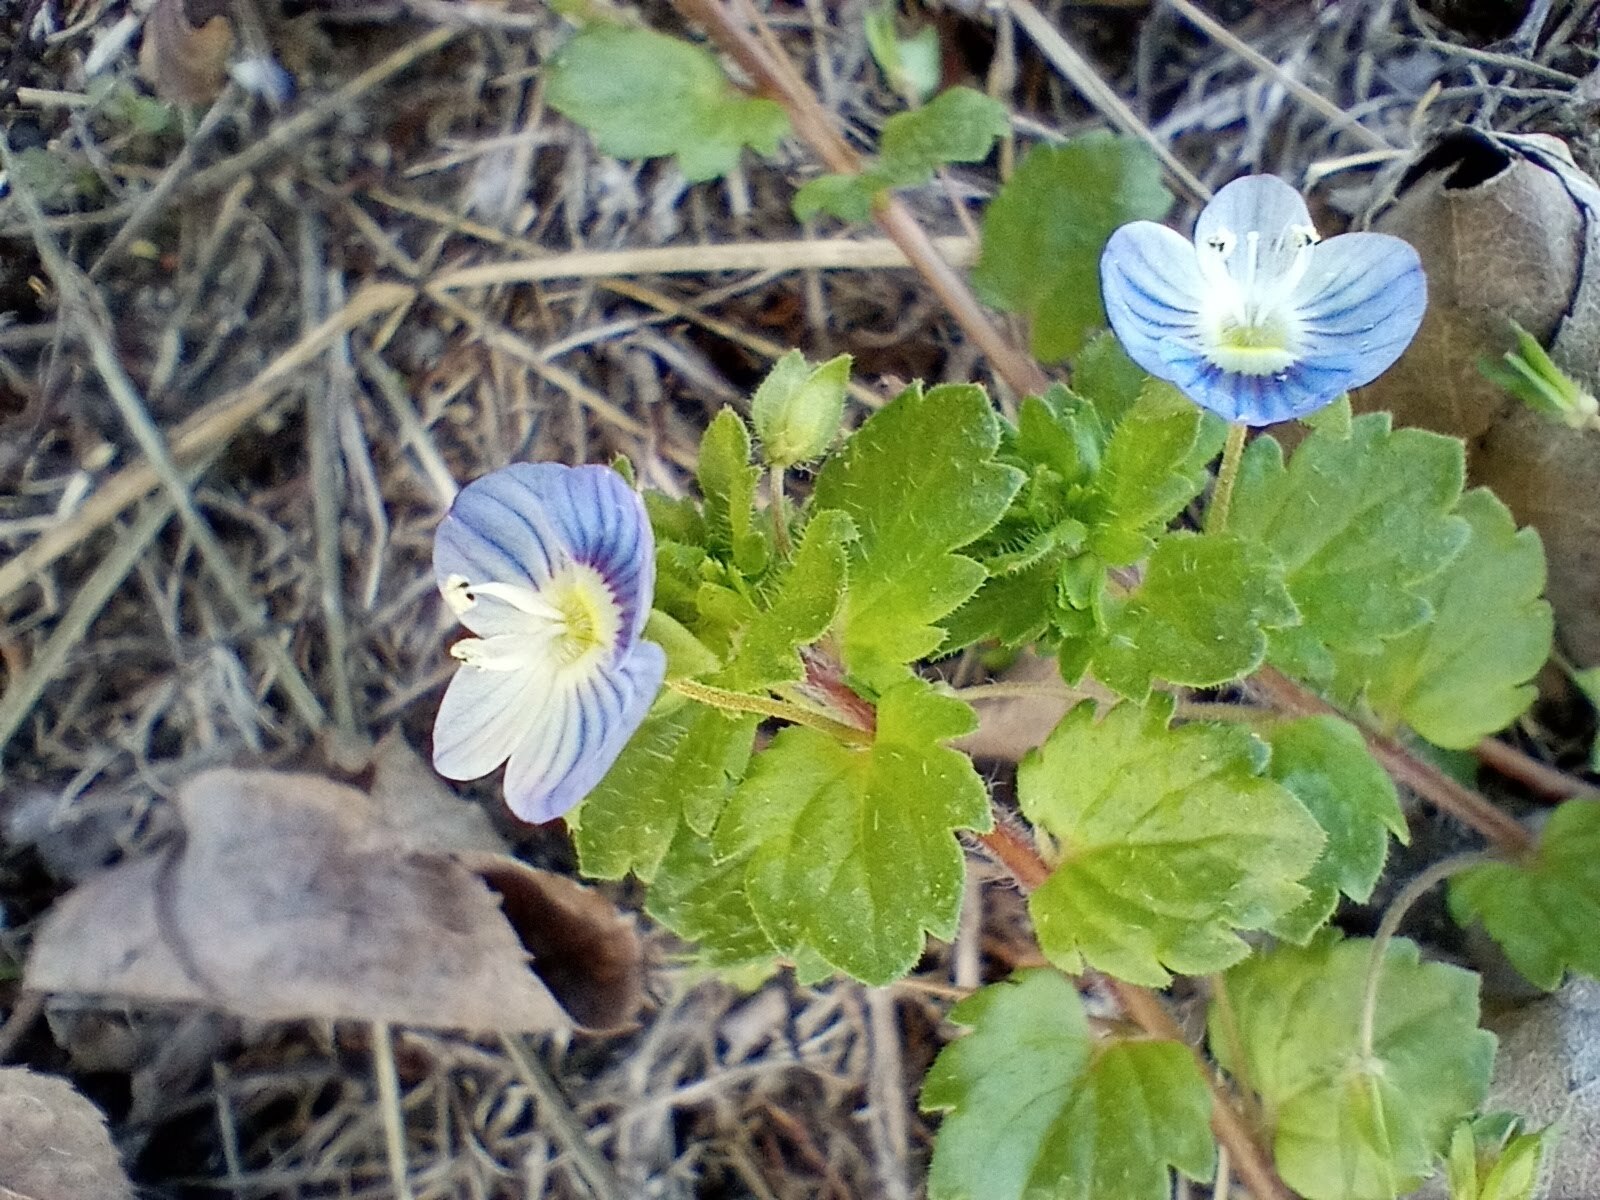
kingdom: Plantae
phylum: Tracheophyta
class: Magnoliopsida
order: Lamiales
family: Plantaginaceae
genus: Veronica
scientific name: Veronica persica
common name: Common field-speedwell
